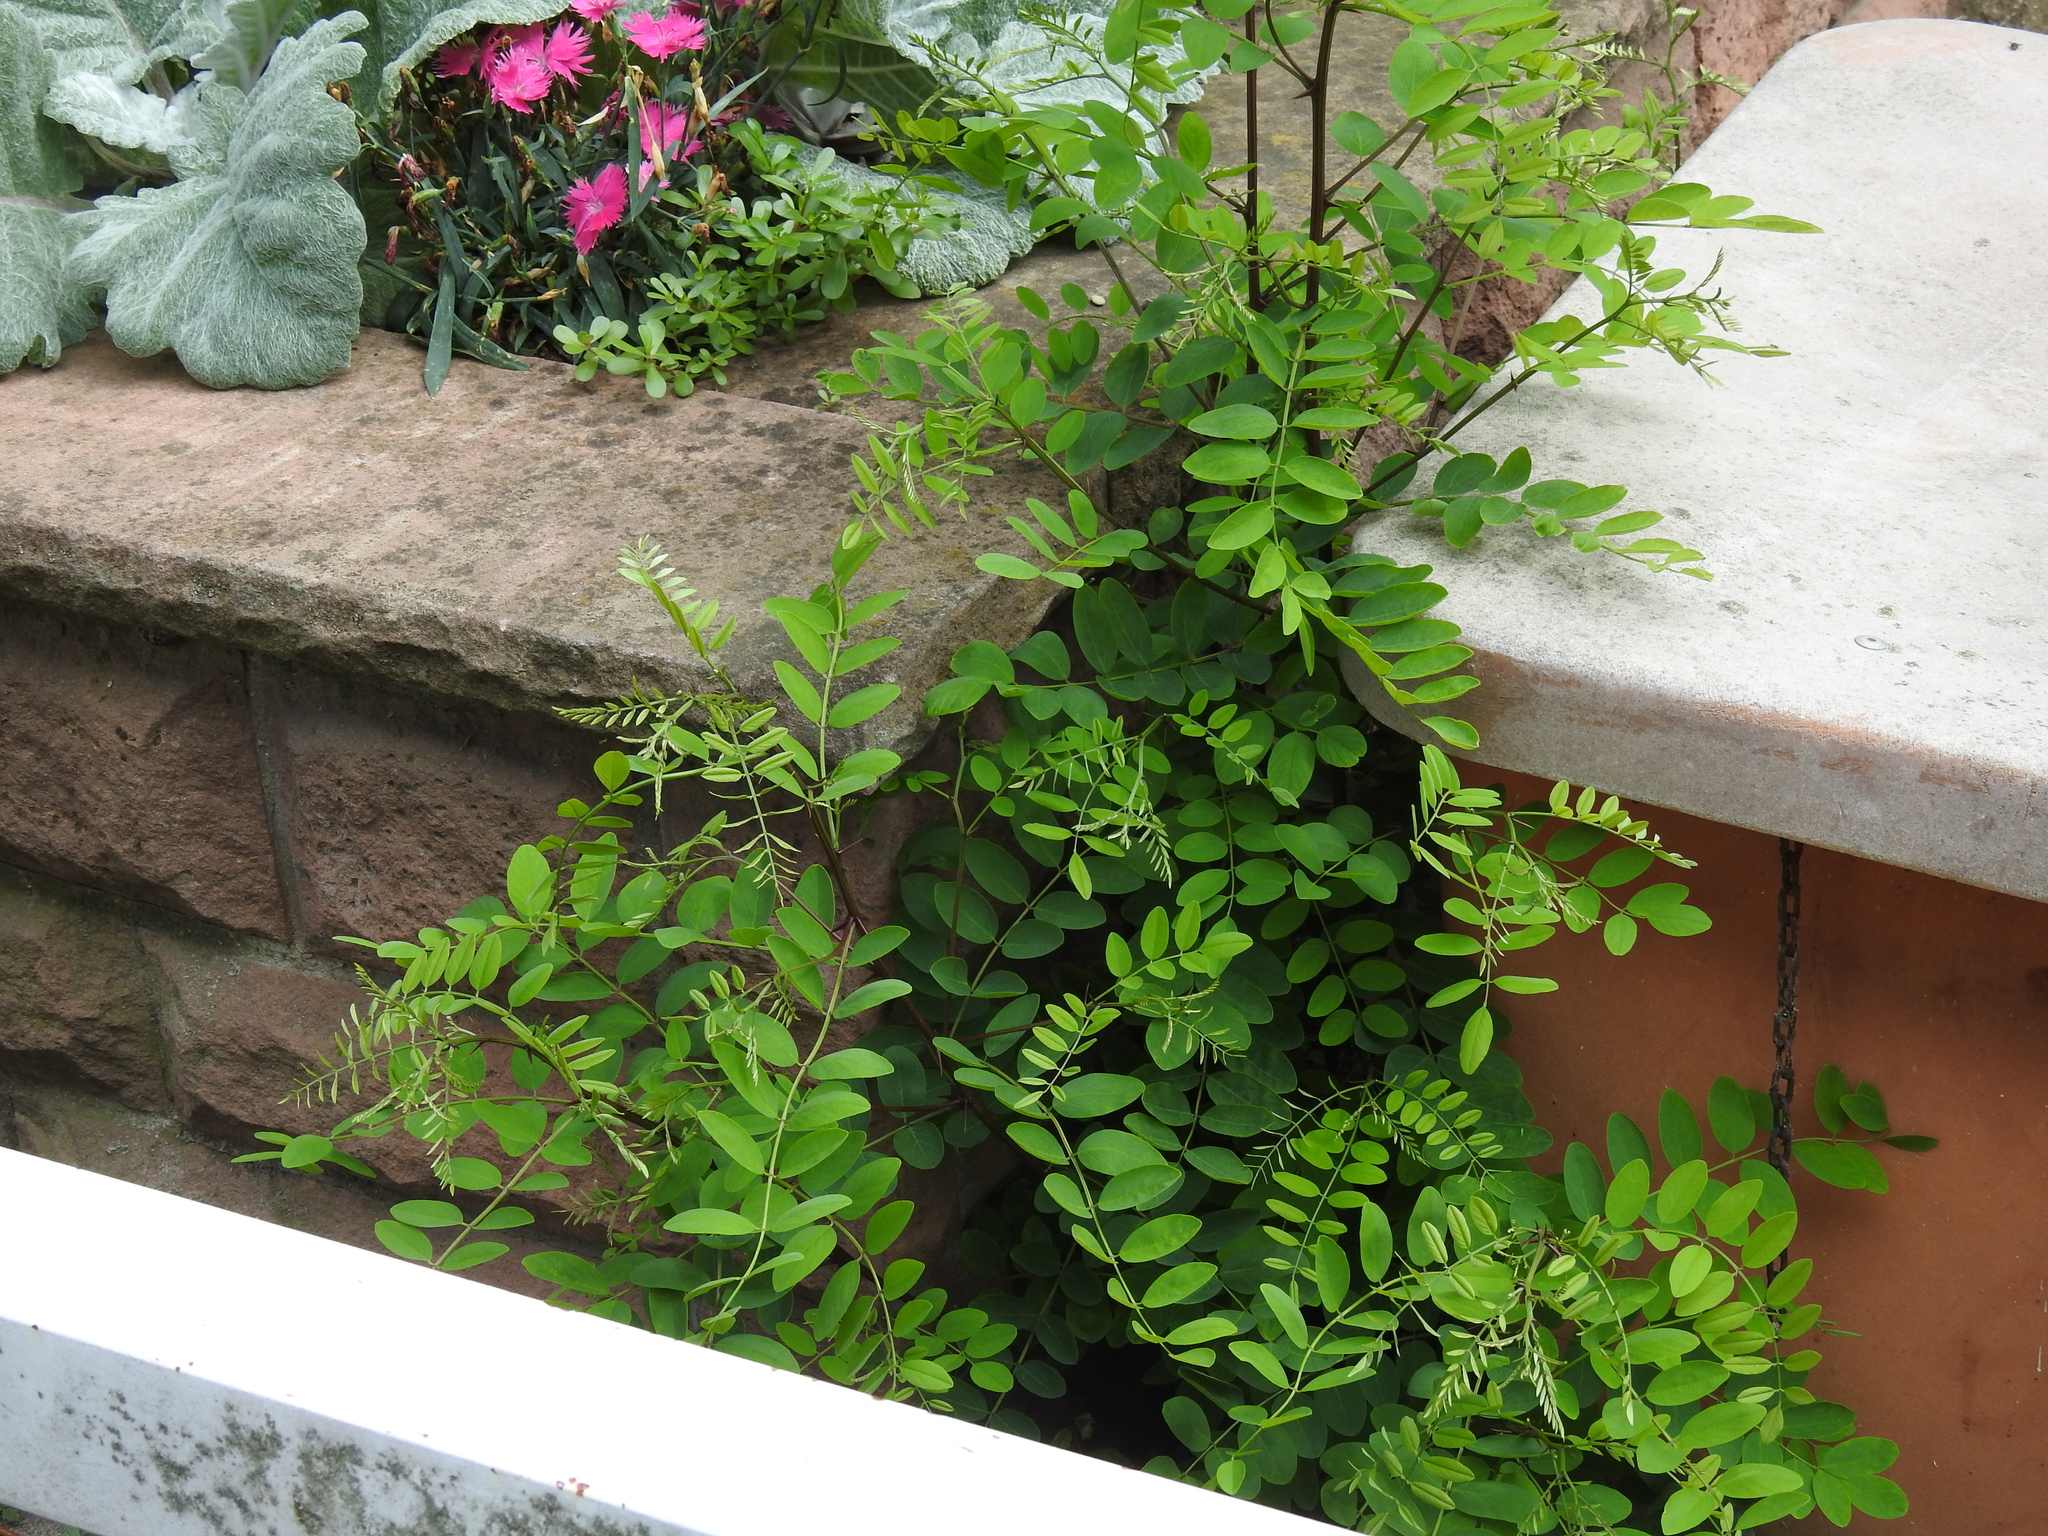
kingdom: Plantae
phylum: Tracheophyta
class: Magnoliopsida
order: Fabales
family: Fabaceae
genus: Robinia
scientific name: Robinia pseudoacacia
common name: Black locust
